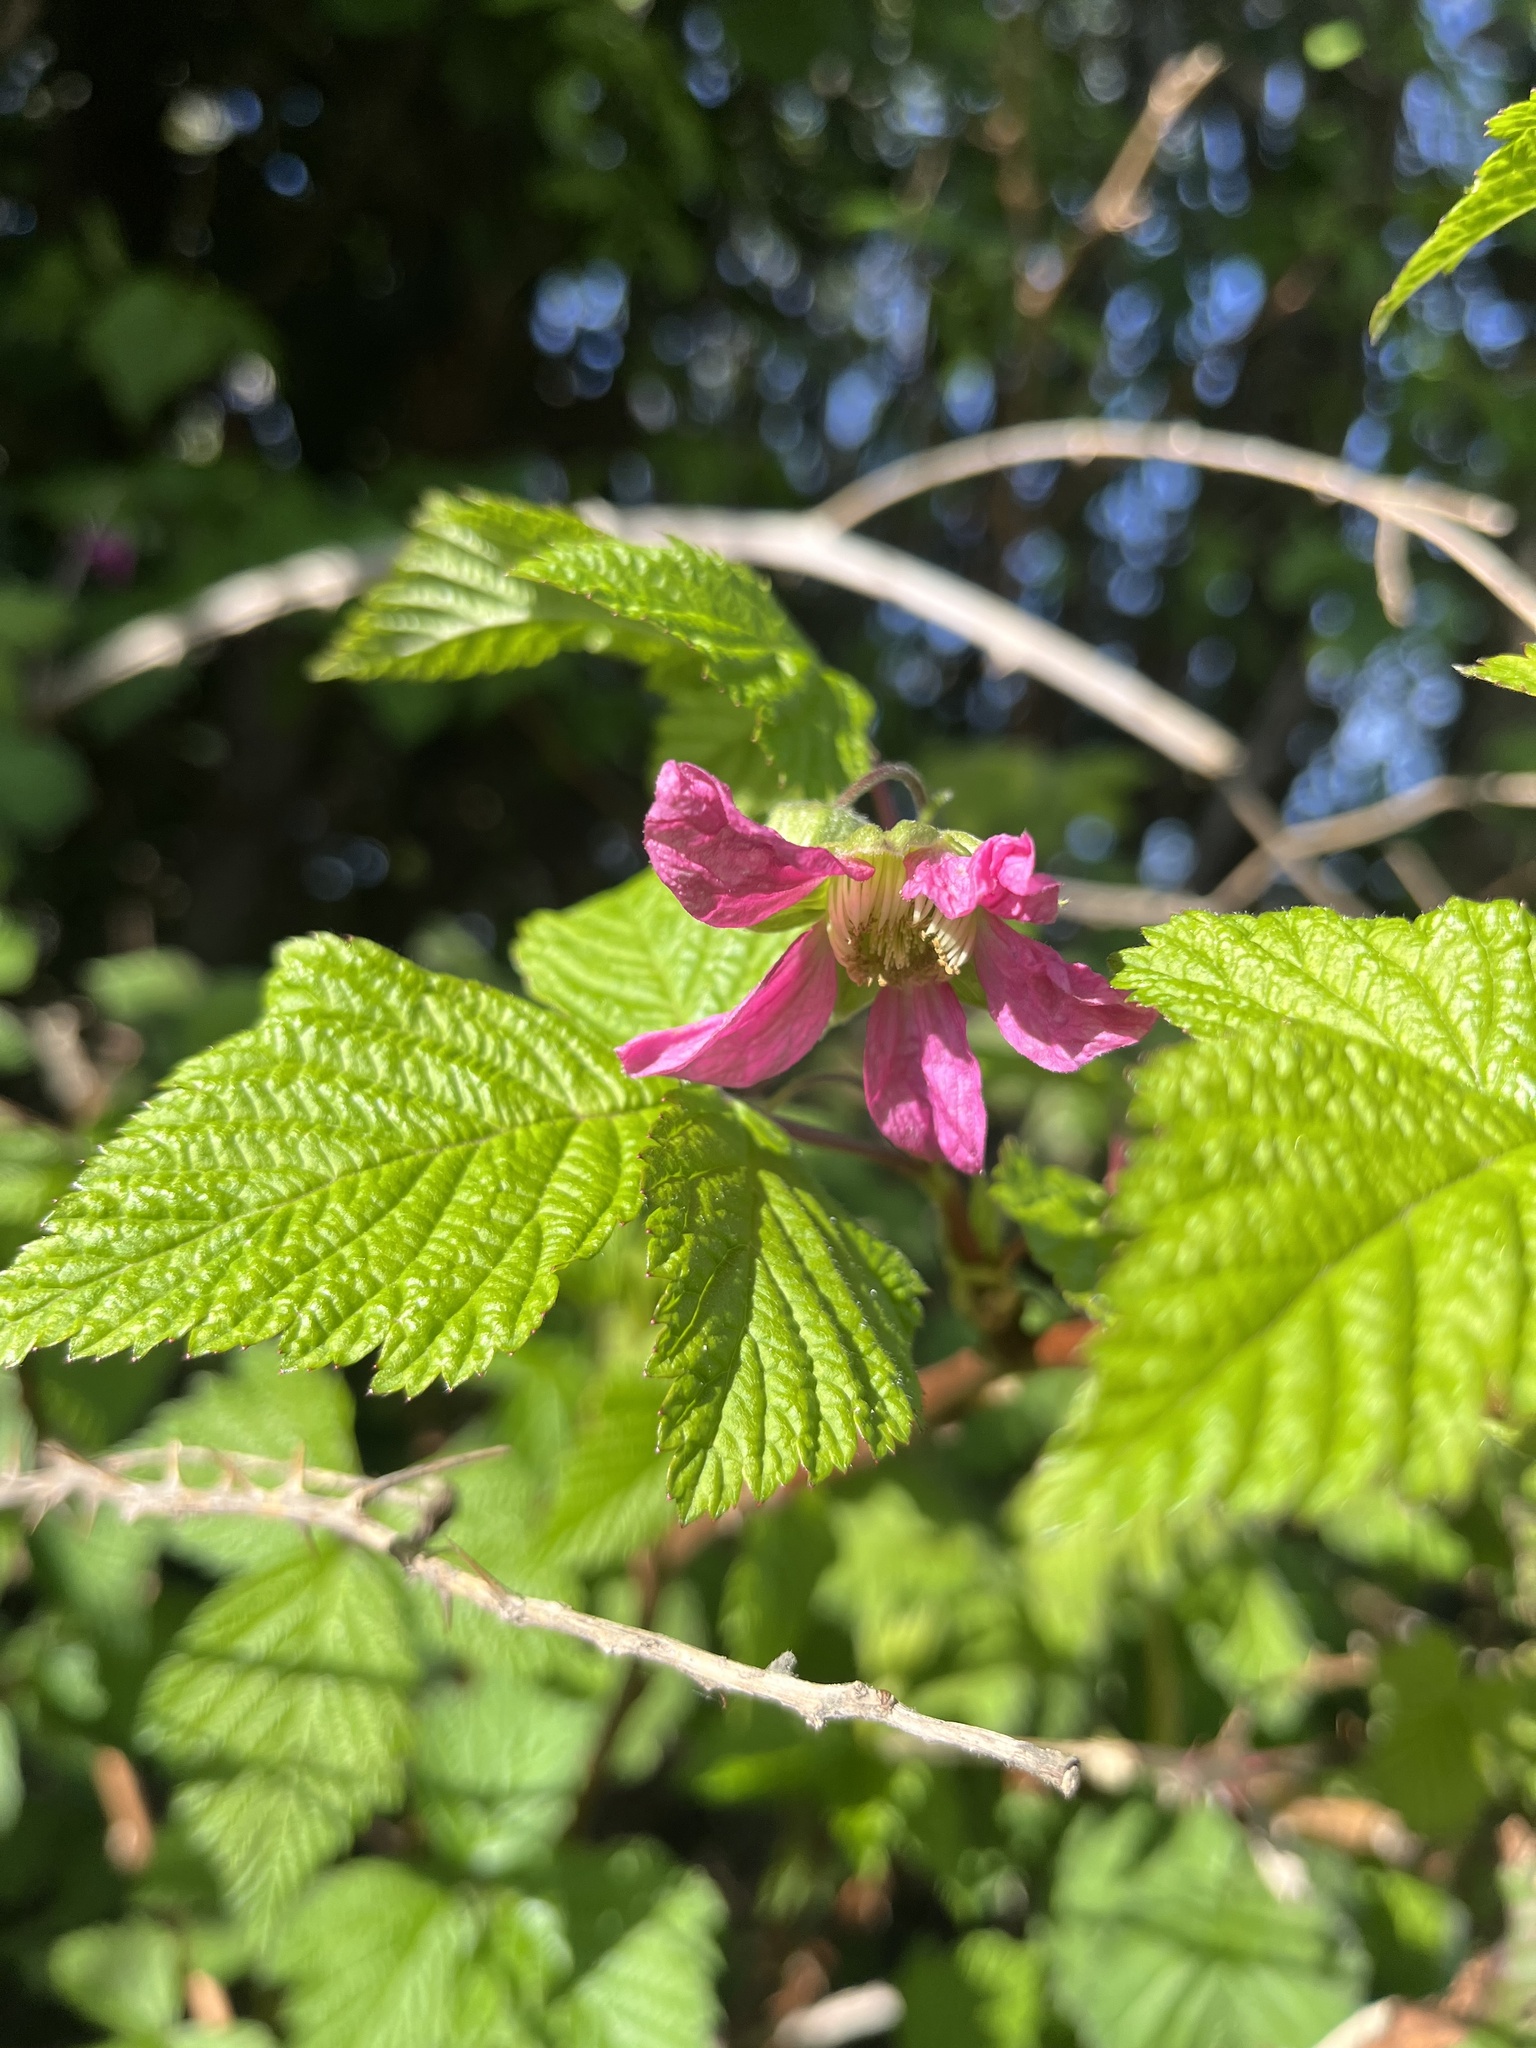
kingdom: Plantae
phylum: Tracheophyta
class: Magnoliopsida
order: Rosales
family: Rosaceae
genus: Rubus
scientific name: Rubus spectabilis
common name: Salmonberry
